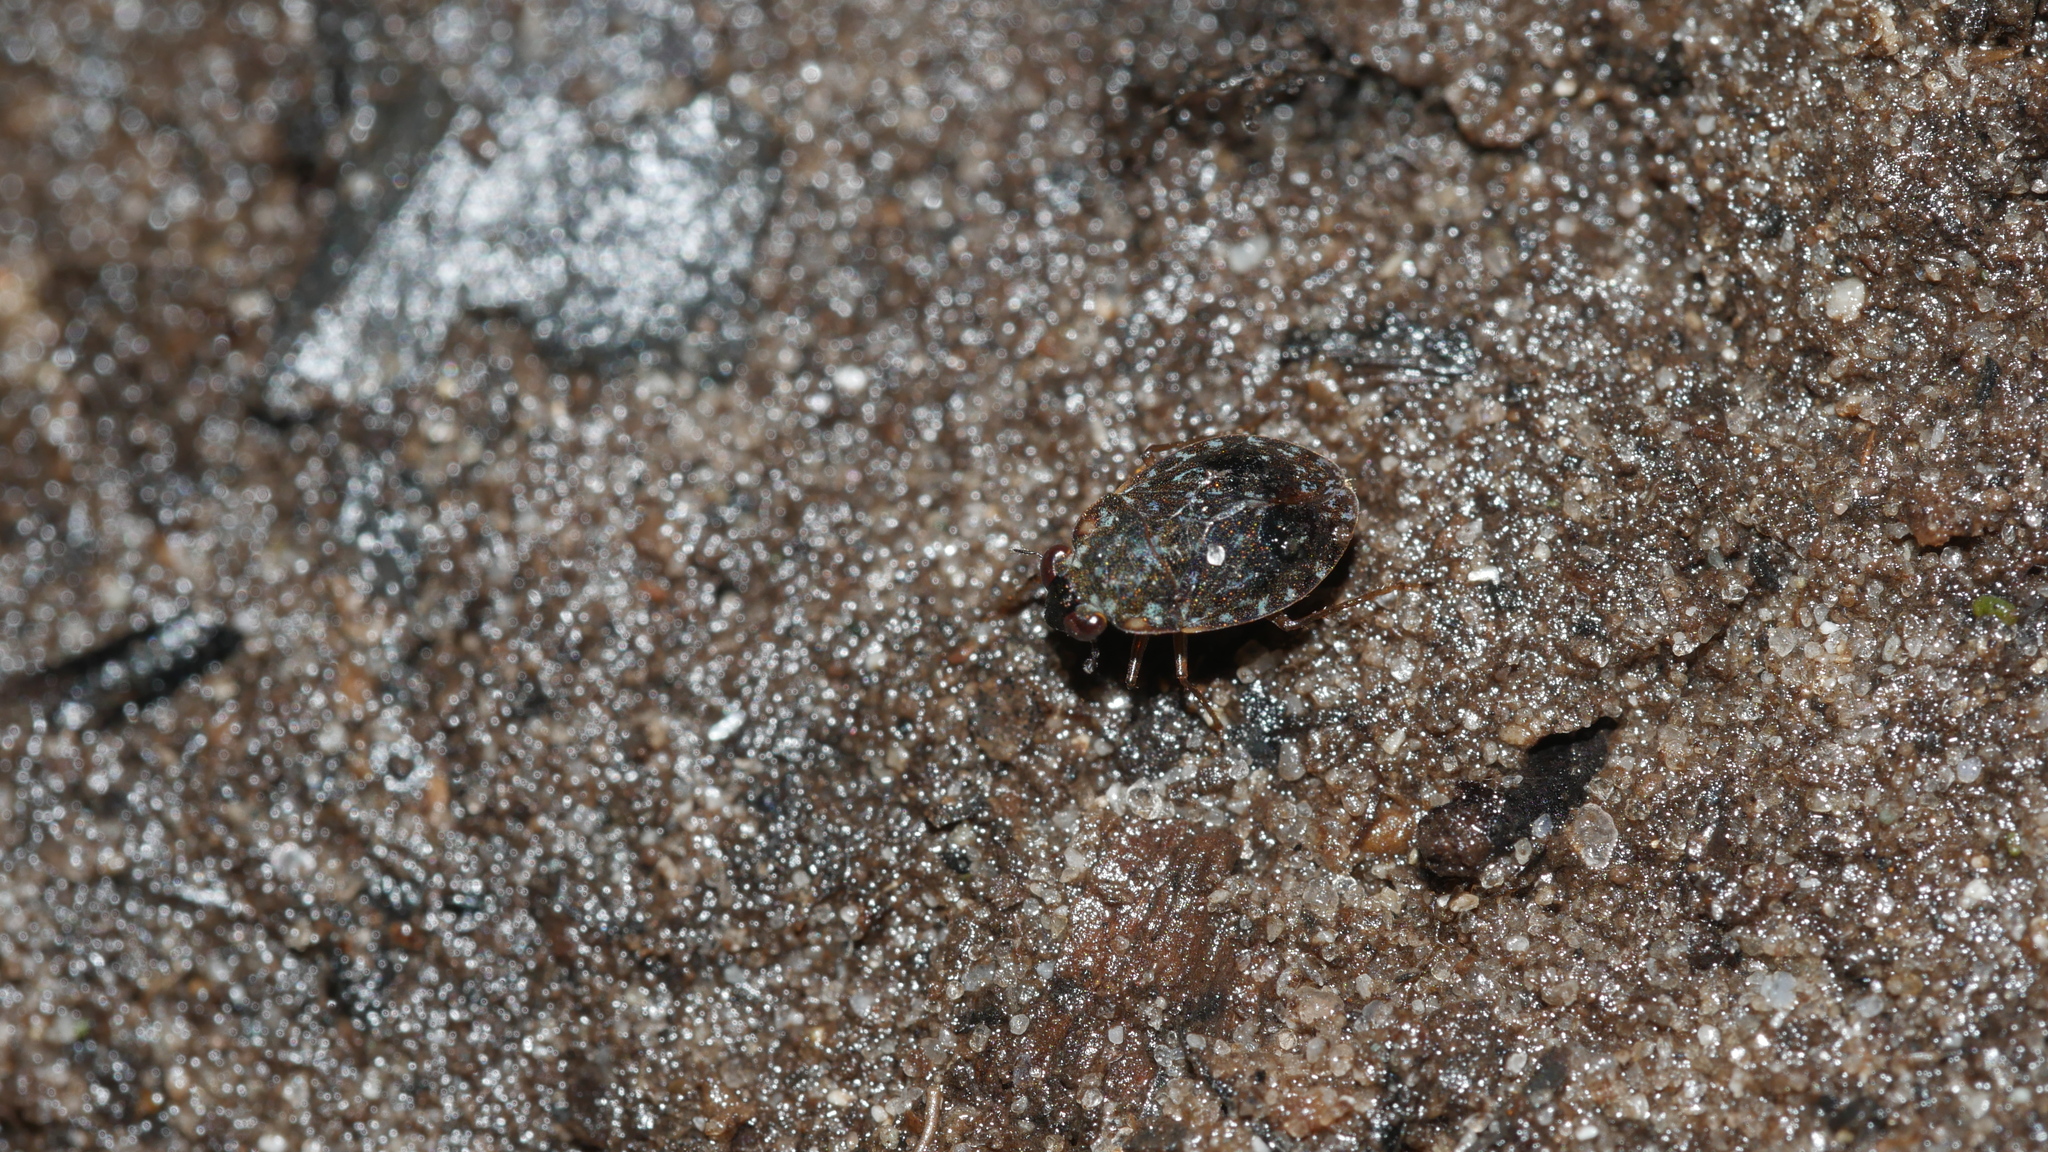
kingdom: Animalia
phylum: Arthropoda
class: Insecta
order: Hemiptera
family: Ochteridae
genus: Ochterus
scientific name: Ochterus
